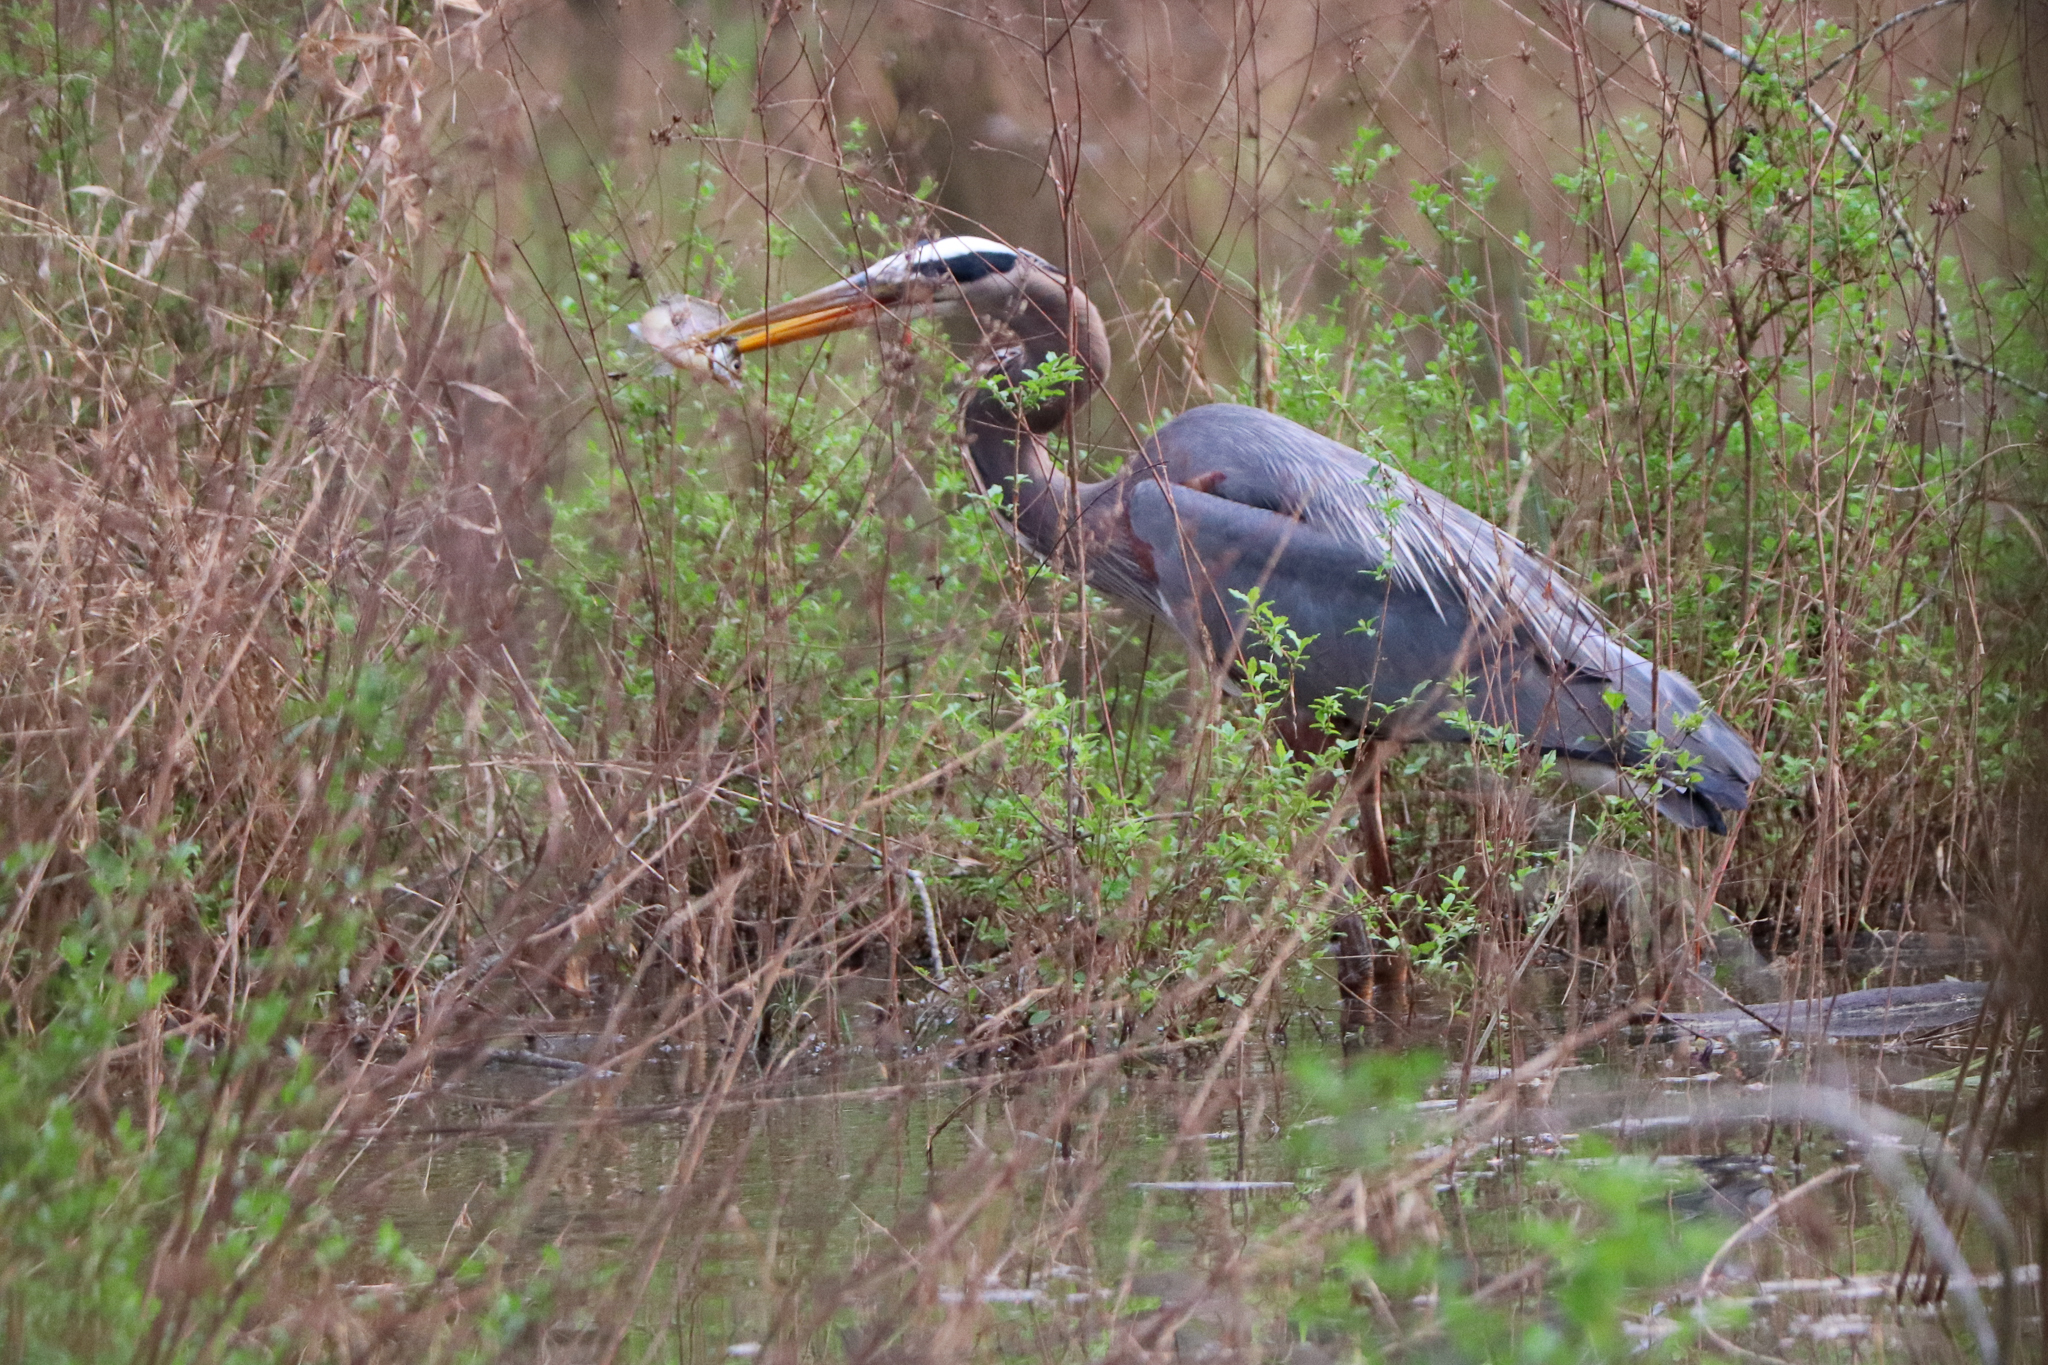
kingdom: Animalia
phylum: Chordata
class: Aves
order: Pelecaniformes
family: Ardeidae
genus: Ardea
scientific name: Ardea herodias
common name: Great blue heron
